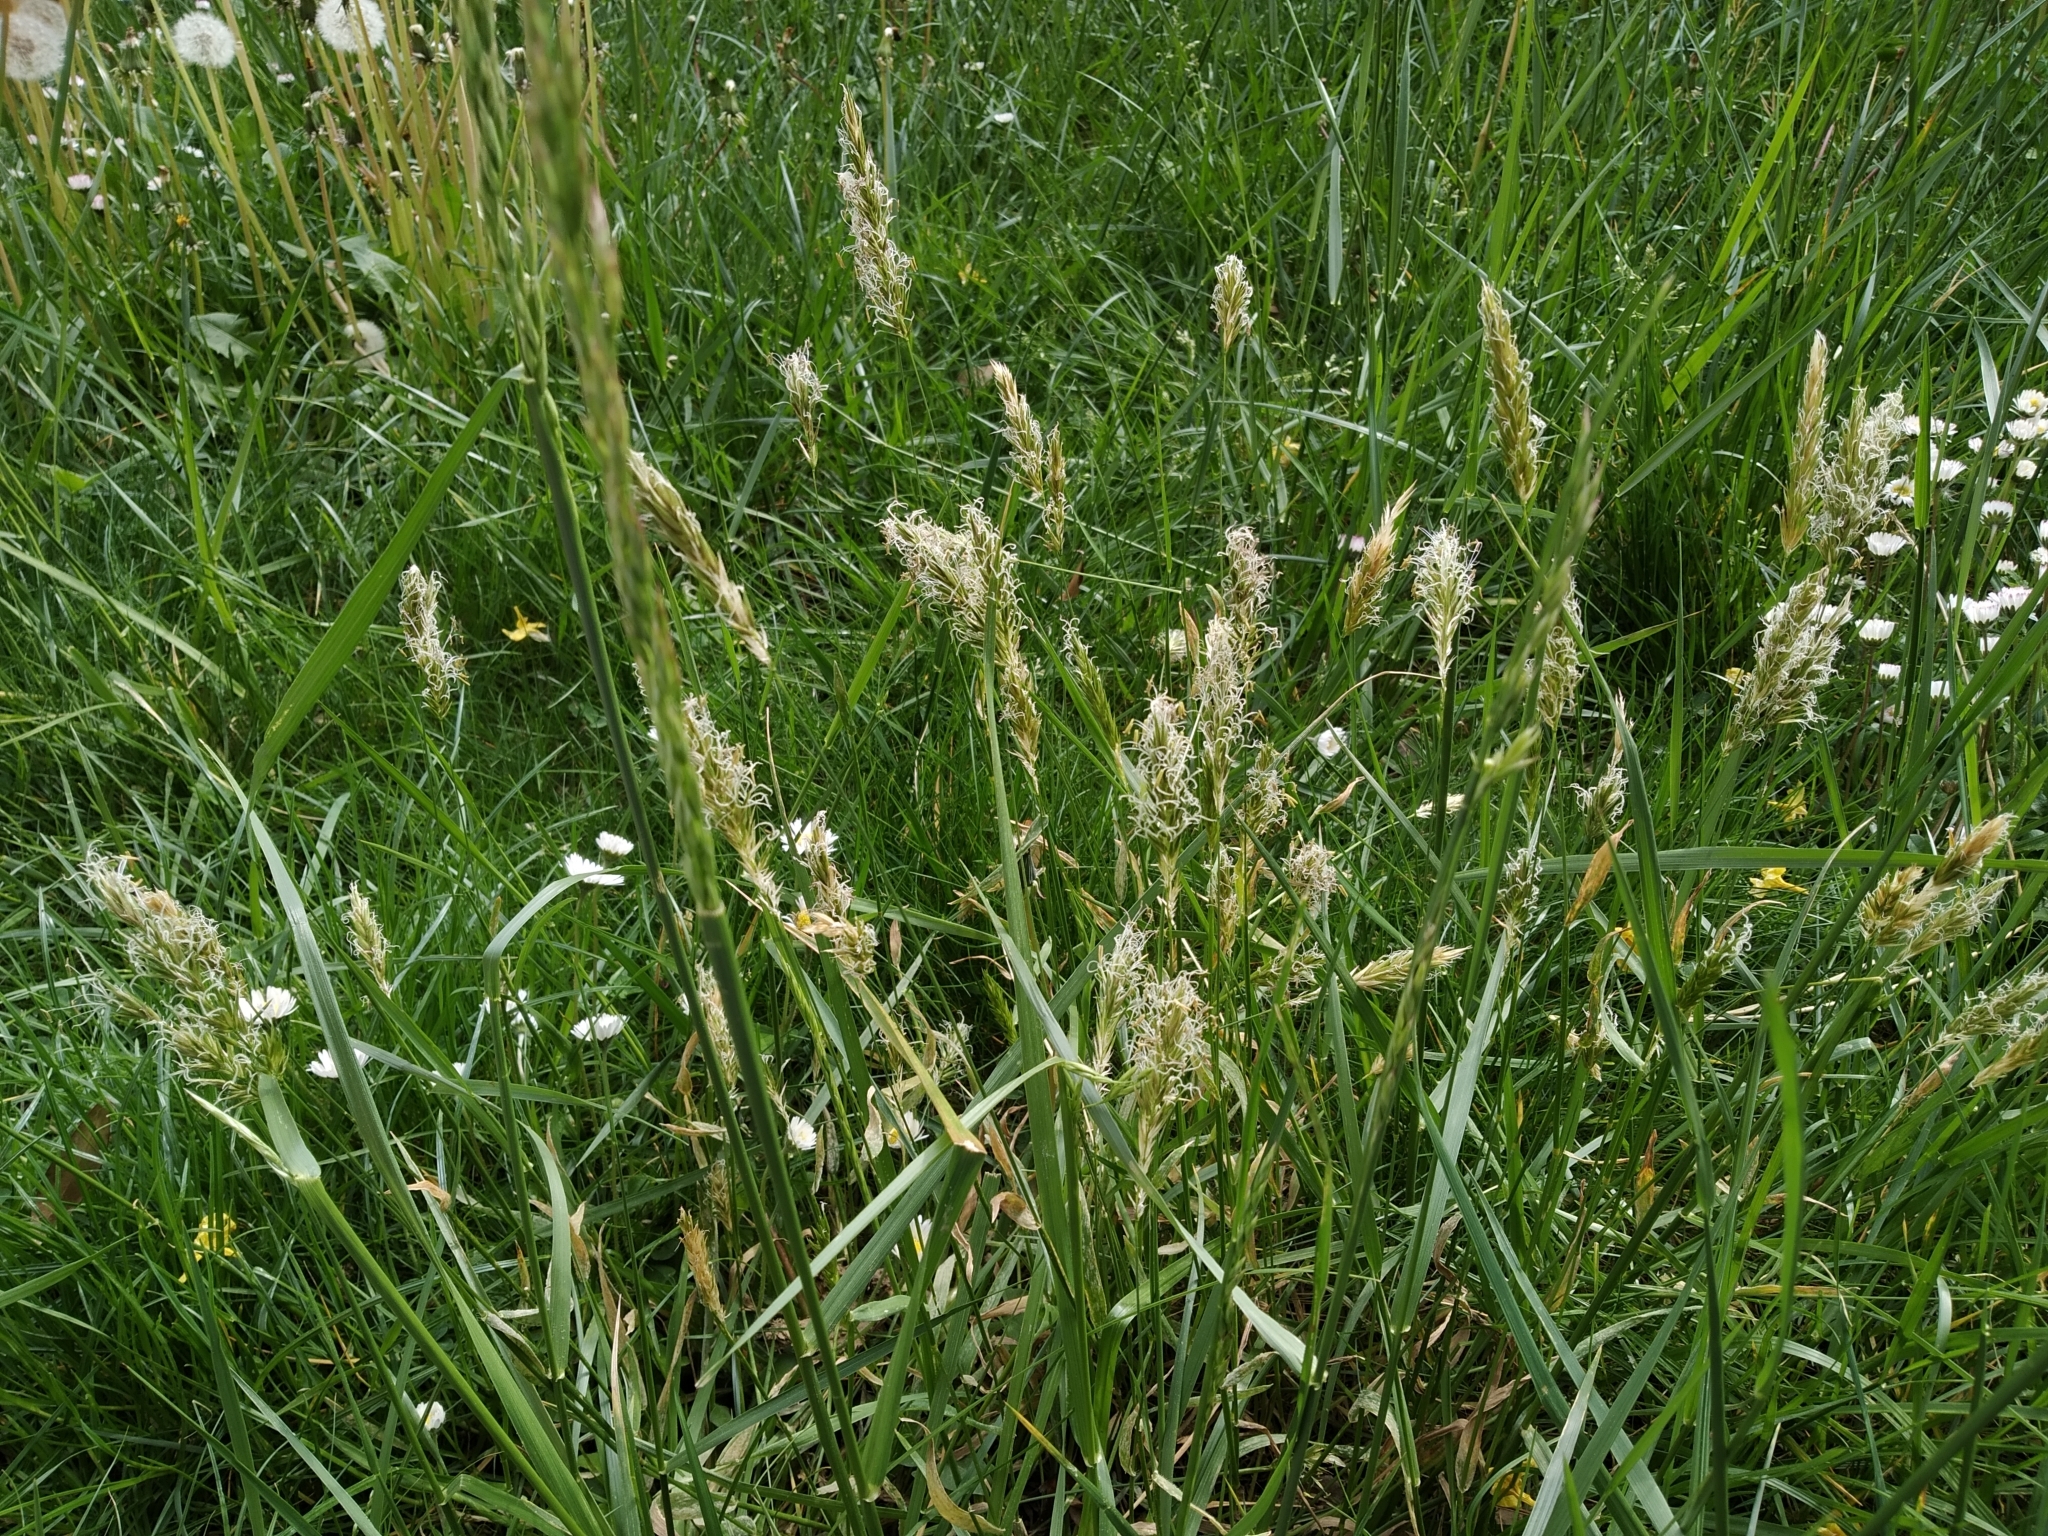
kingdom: Plantae
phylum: Tracheophyta
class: Liliopsida
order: Poales
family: Poaceae
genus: Anthoxanthum
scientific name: Anthoxanthum odoratum
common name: Sweet vernalgrass
